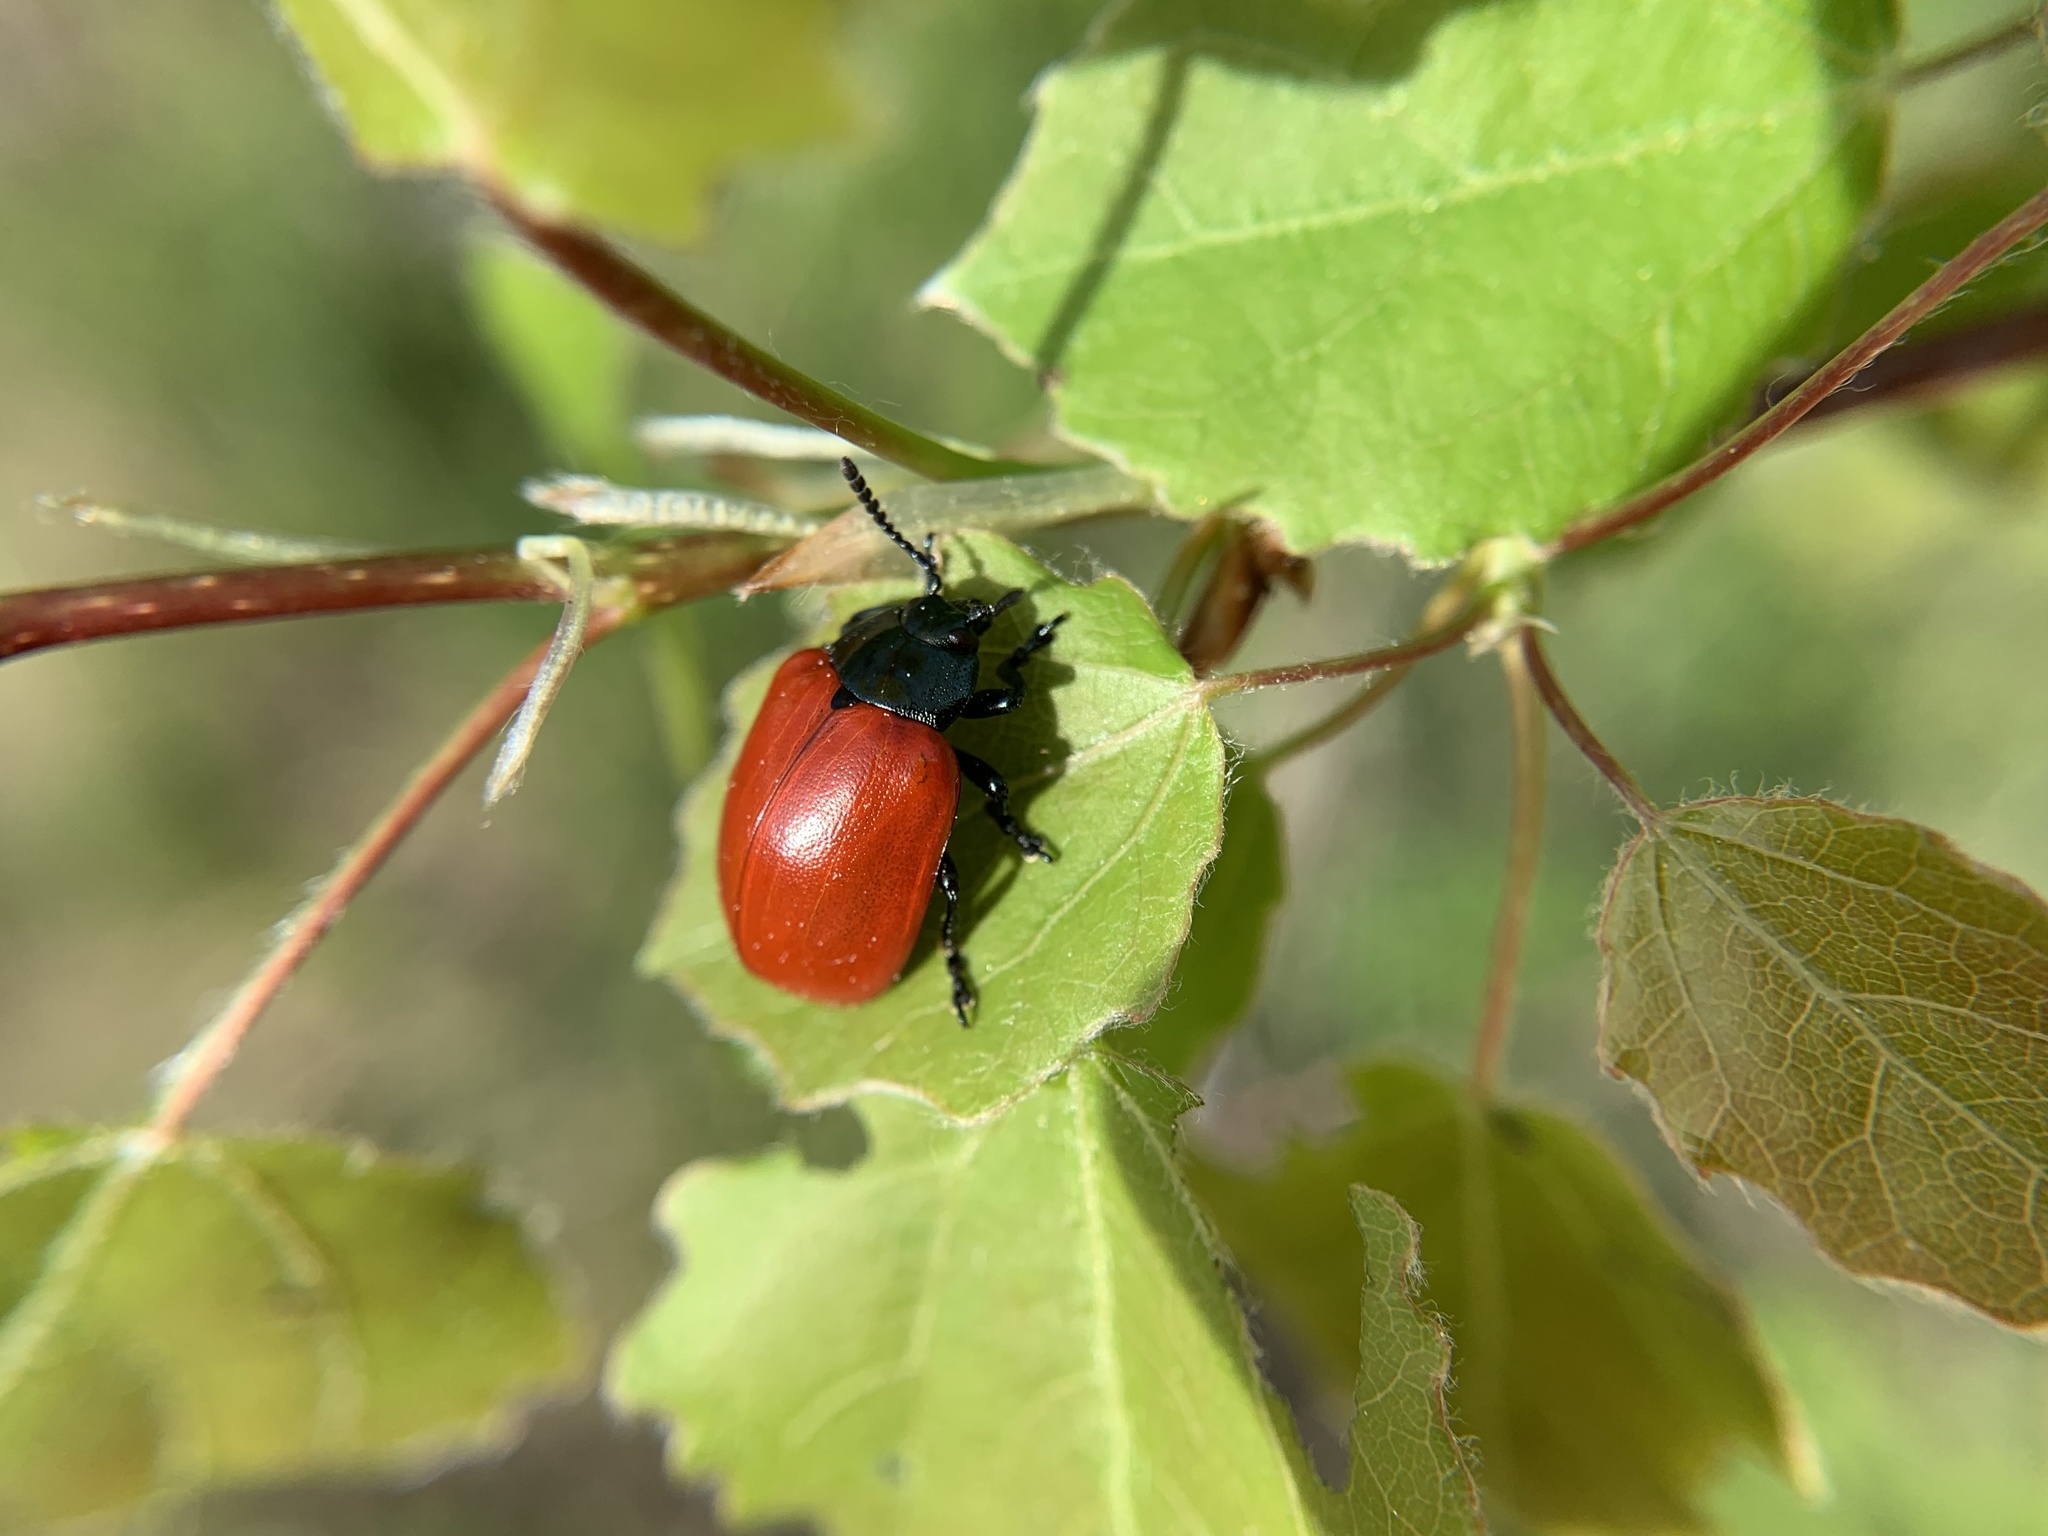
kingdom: Animalia
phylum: Arthropoda
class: Insecta
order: Coleoptera
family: Chrysomelidae
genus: Chrysomela
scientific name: Chrysomela populi
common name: Red poplar leaf beetle
